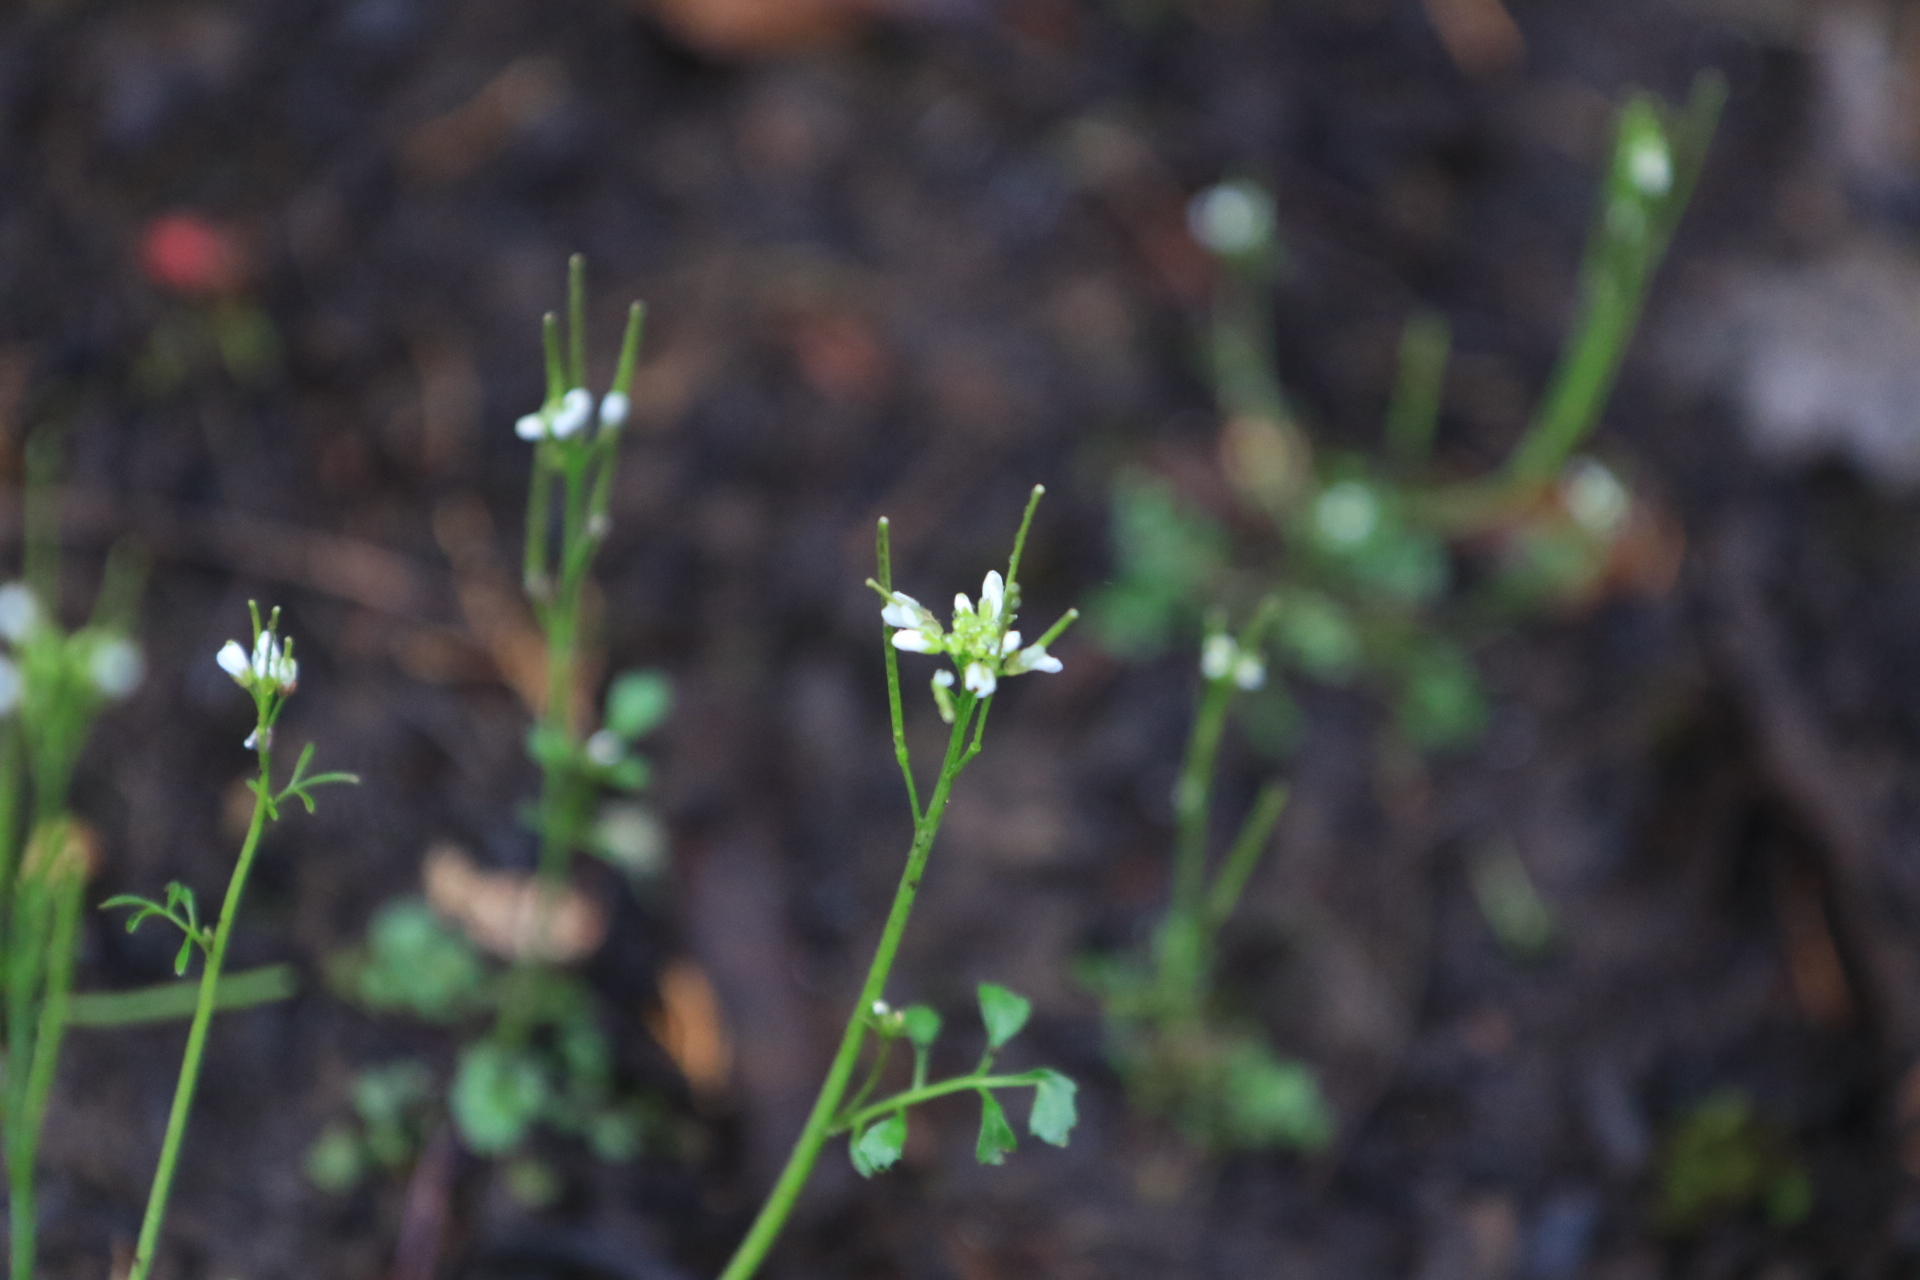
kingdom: Plantae
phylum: Tracheophyta
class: Magnoliopsida
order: Brassicales
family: Brassicaceae
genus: Cardamine
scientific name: Cardamine hirsuta
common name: Hairy bittercress
